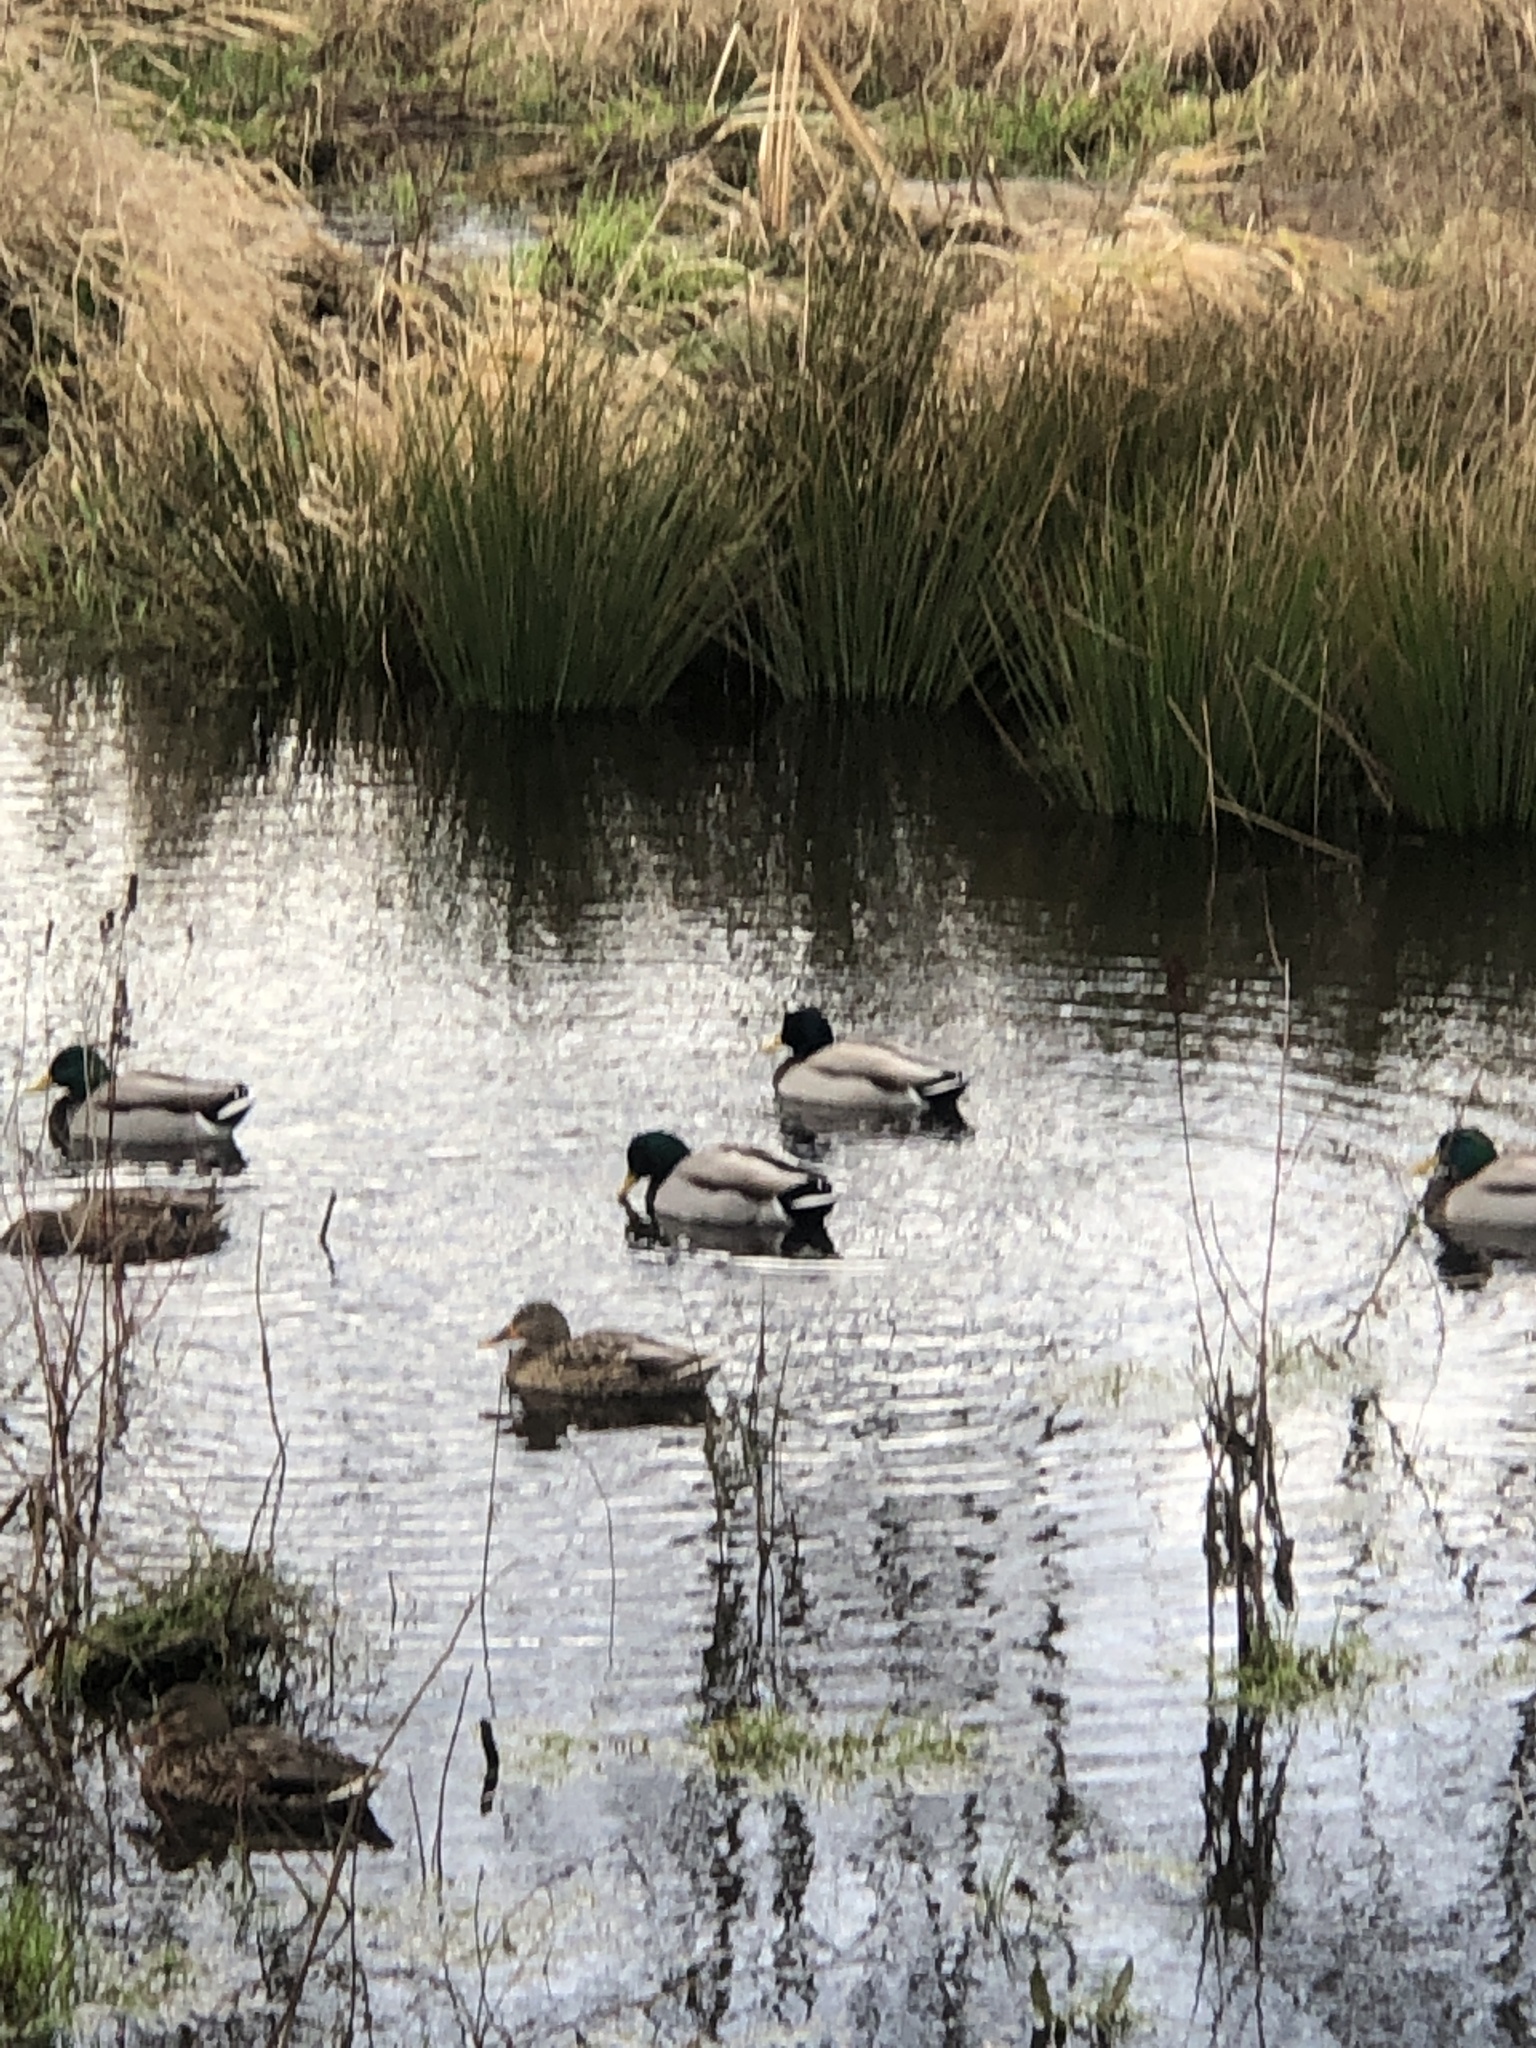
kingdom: Animalia
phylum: Chordata
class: Aves
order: Anseriformes
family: Anatidae
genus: Anas
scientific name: Anas platyrhynchos
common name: Mallard
